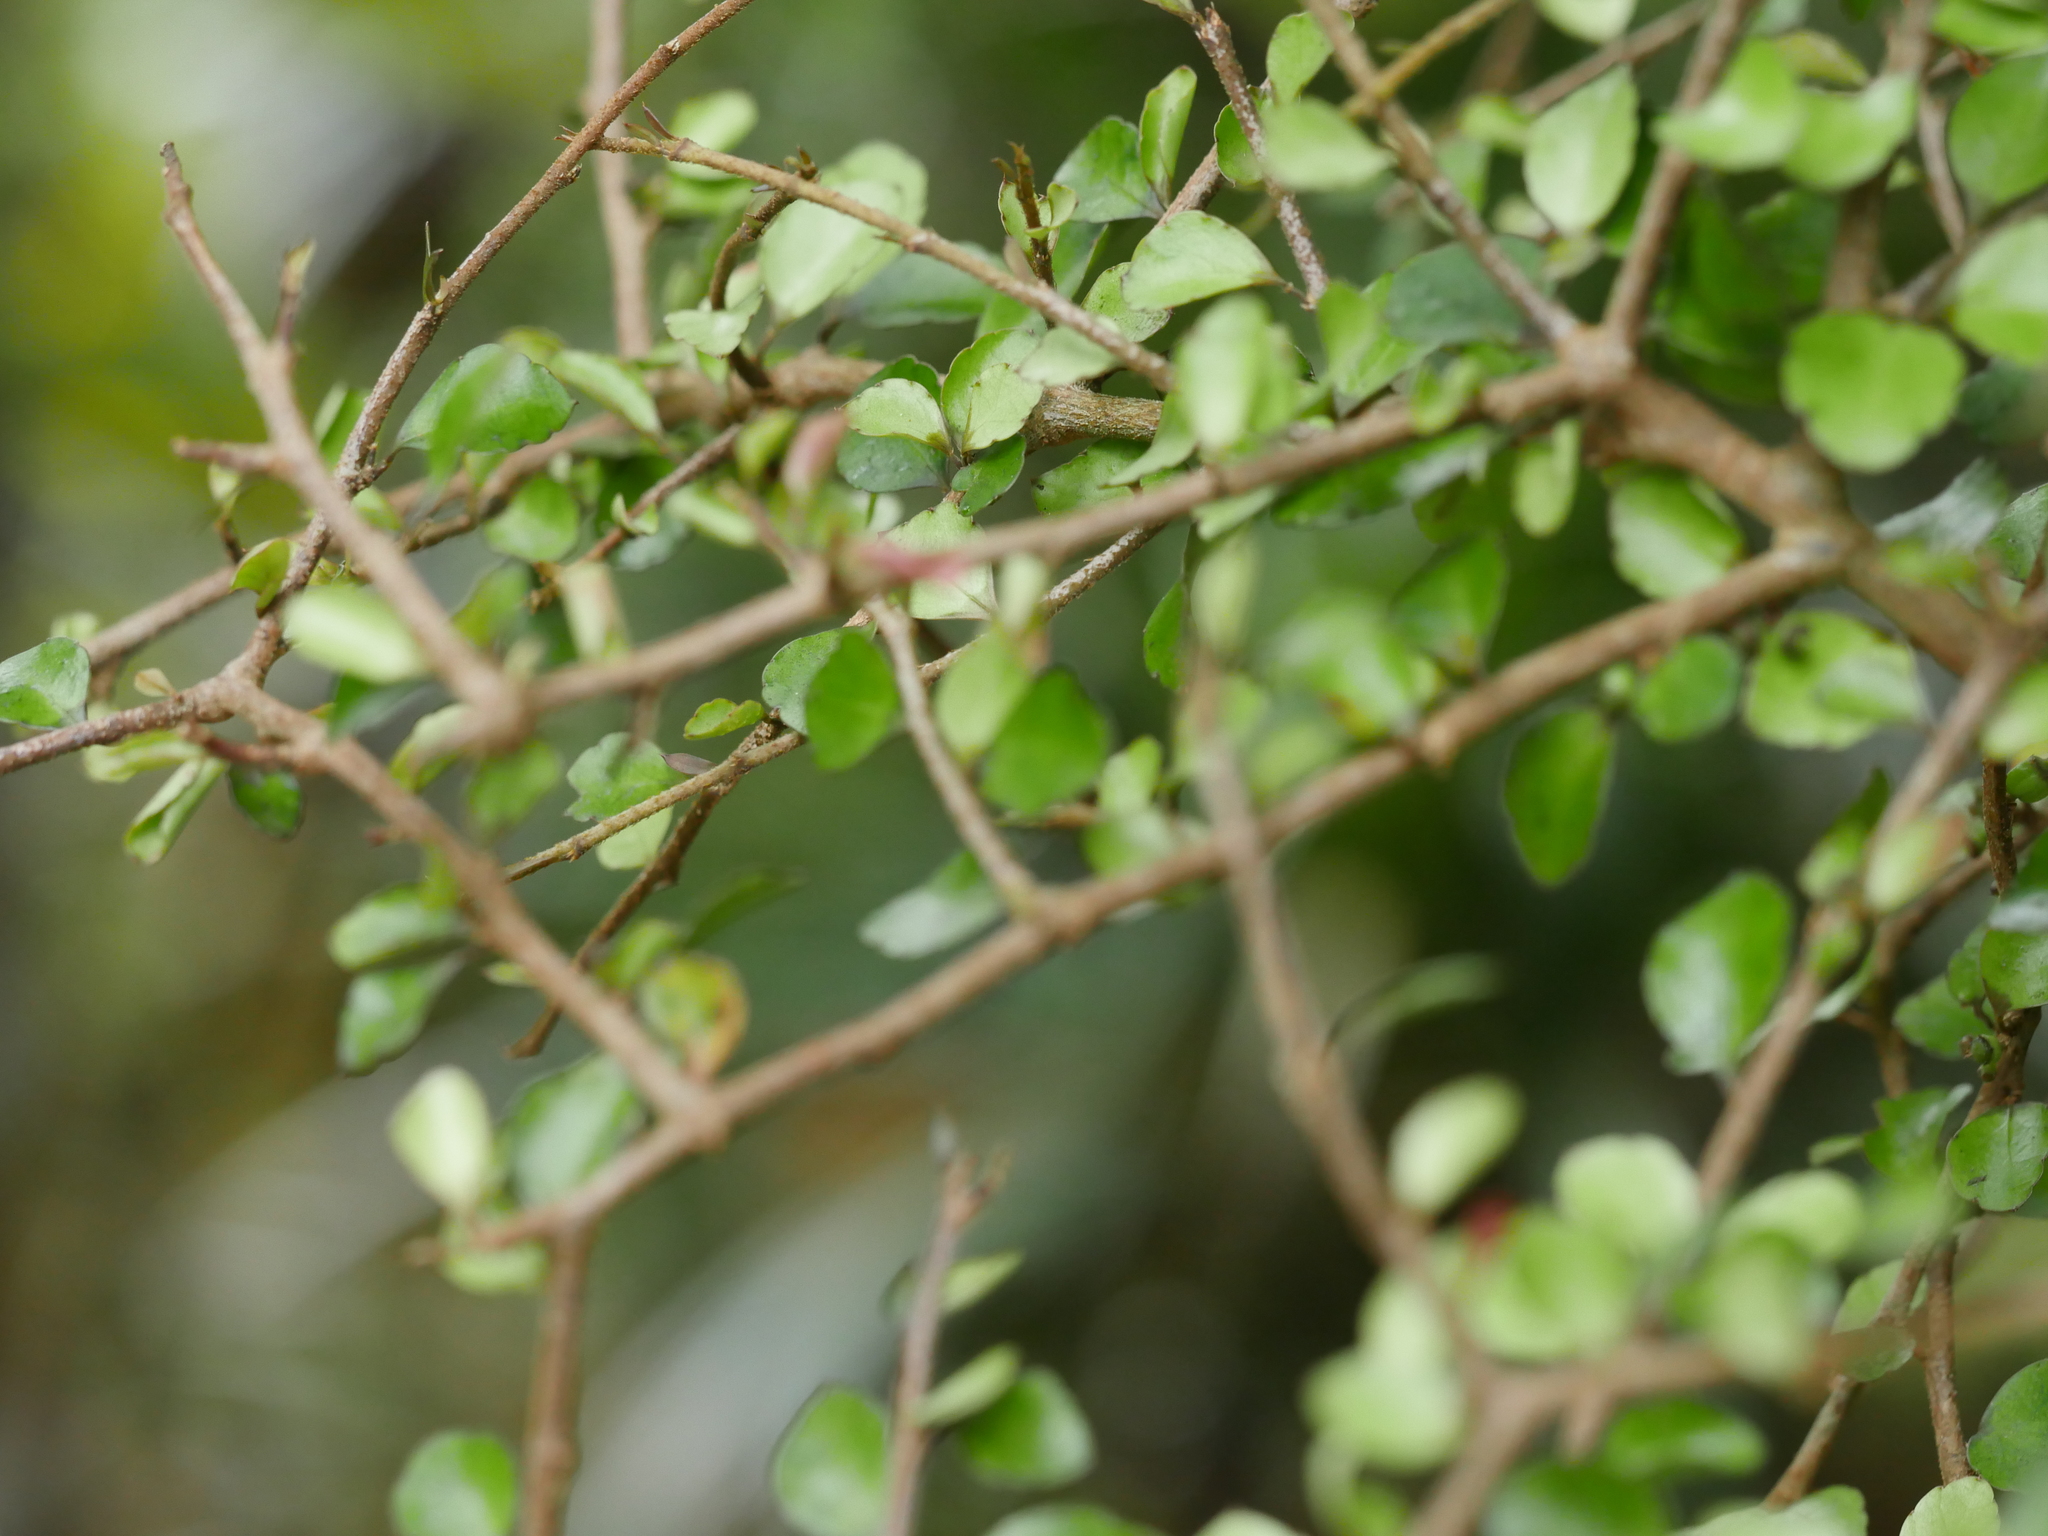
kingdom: Plantae
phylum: Tracheophyta
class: Magnoliopsida
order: Apiales
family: Araliaceae
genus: Raukaua
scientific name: Raukaua anomalus
